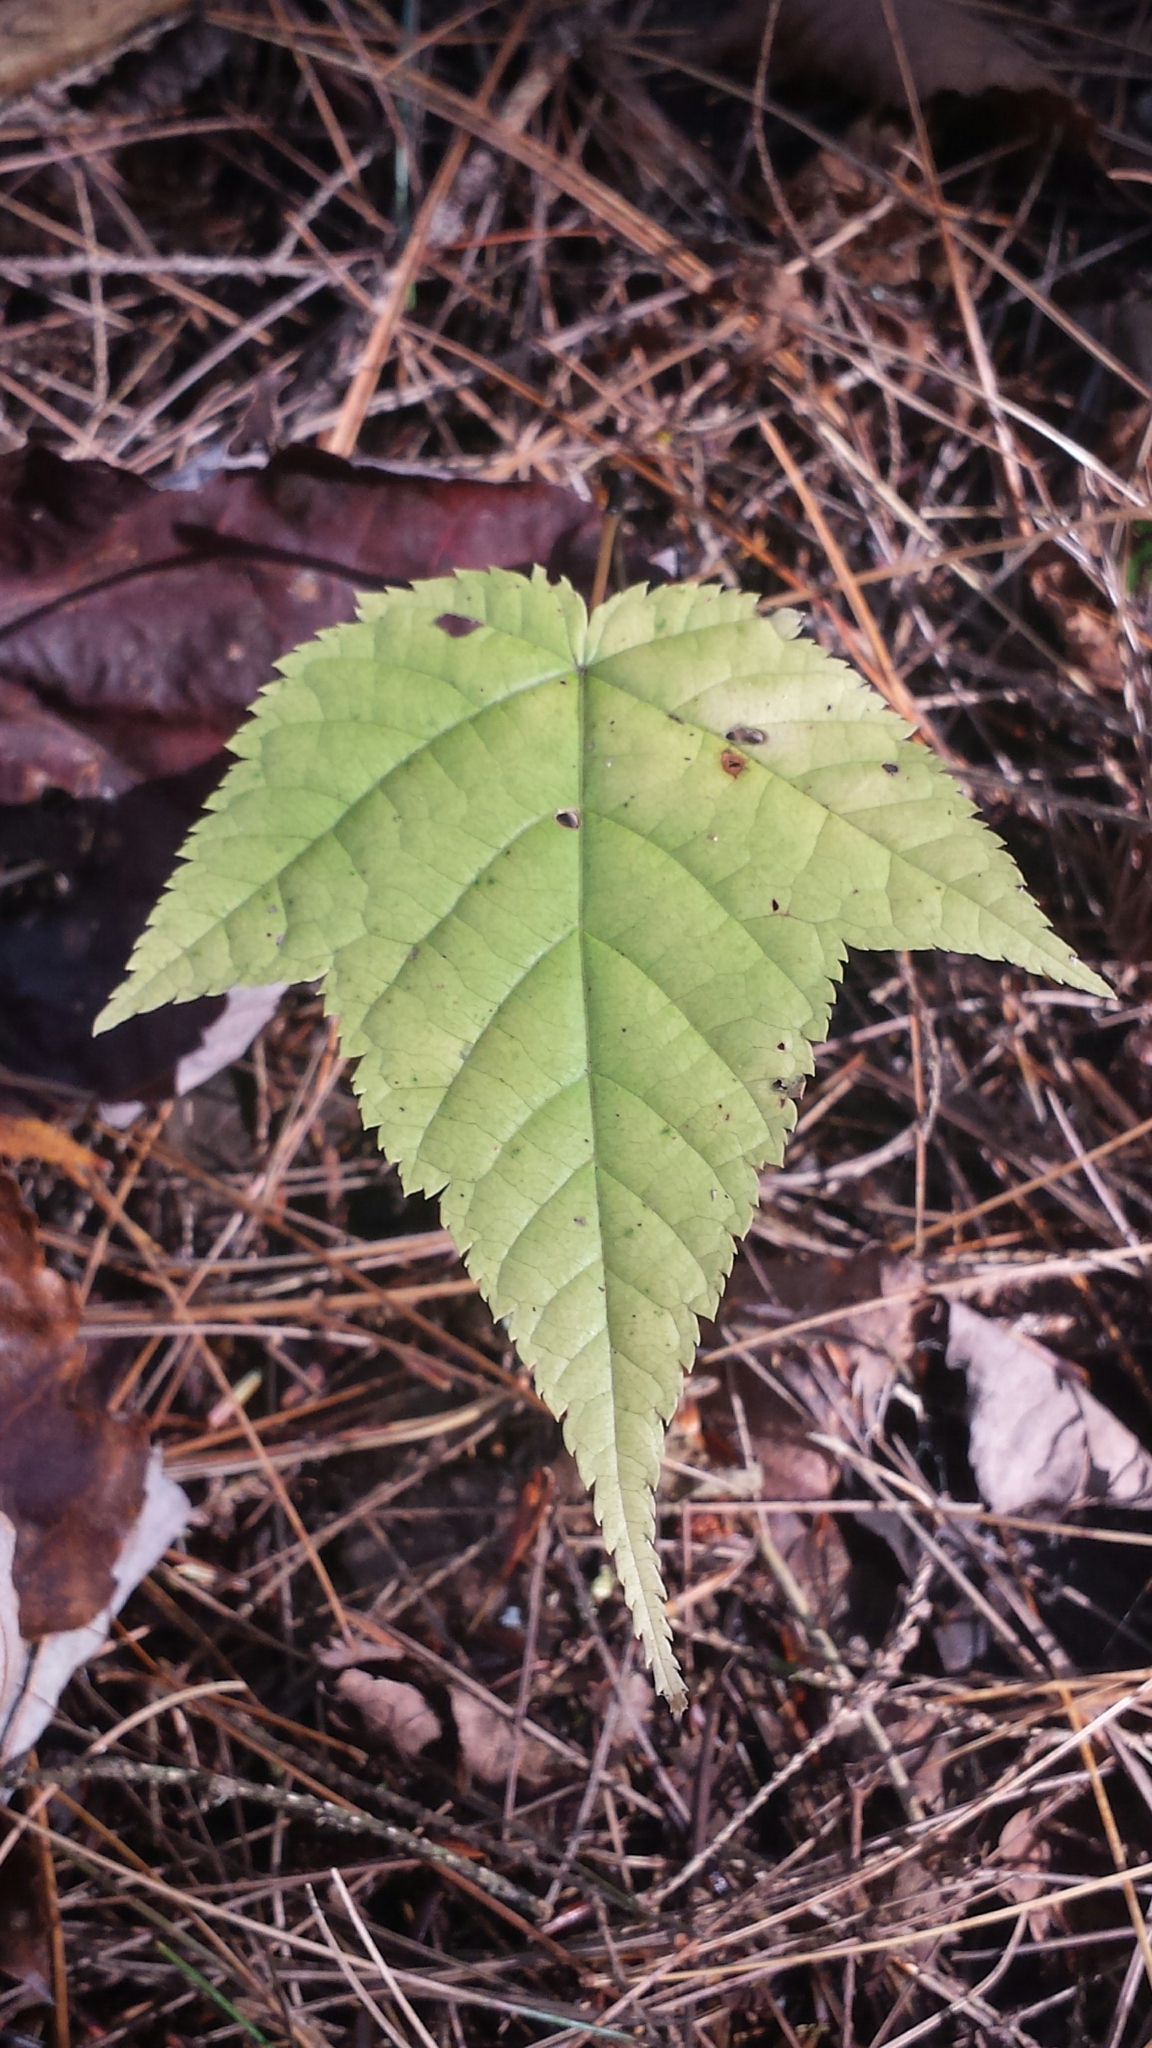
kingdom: Plantae
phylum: Tracheophyta
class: Magnoliopsida
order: Sapindales
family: Sapindaceae
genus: Acer
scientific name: Acer pensylvanicum
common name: Moosewood
